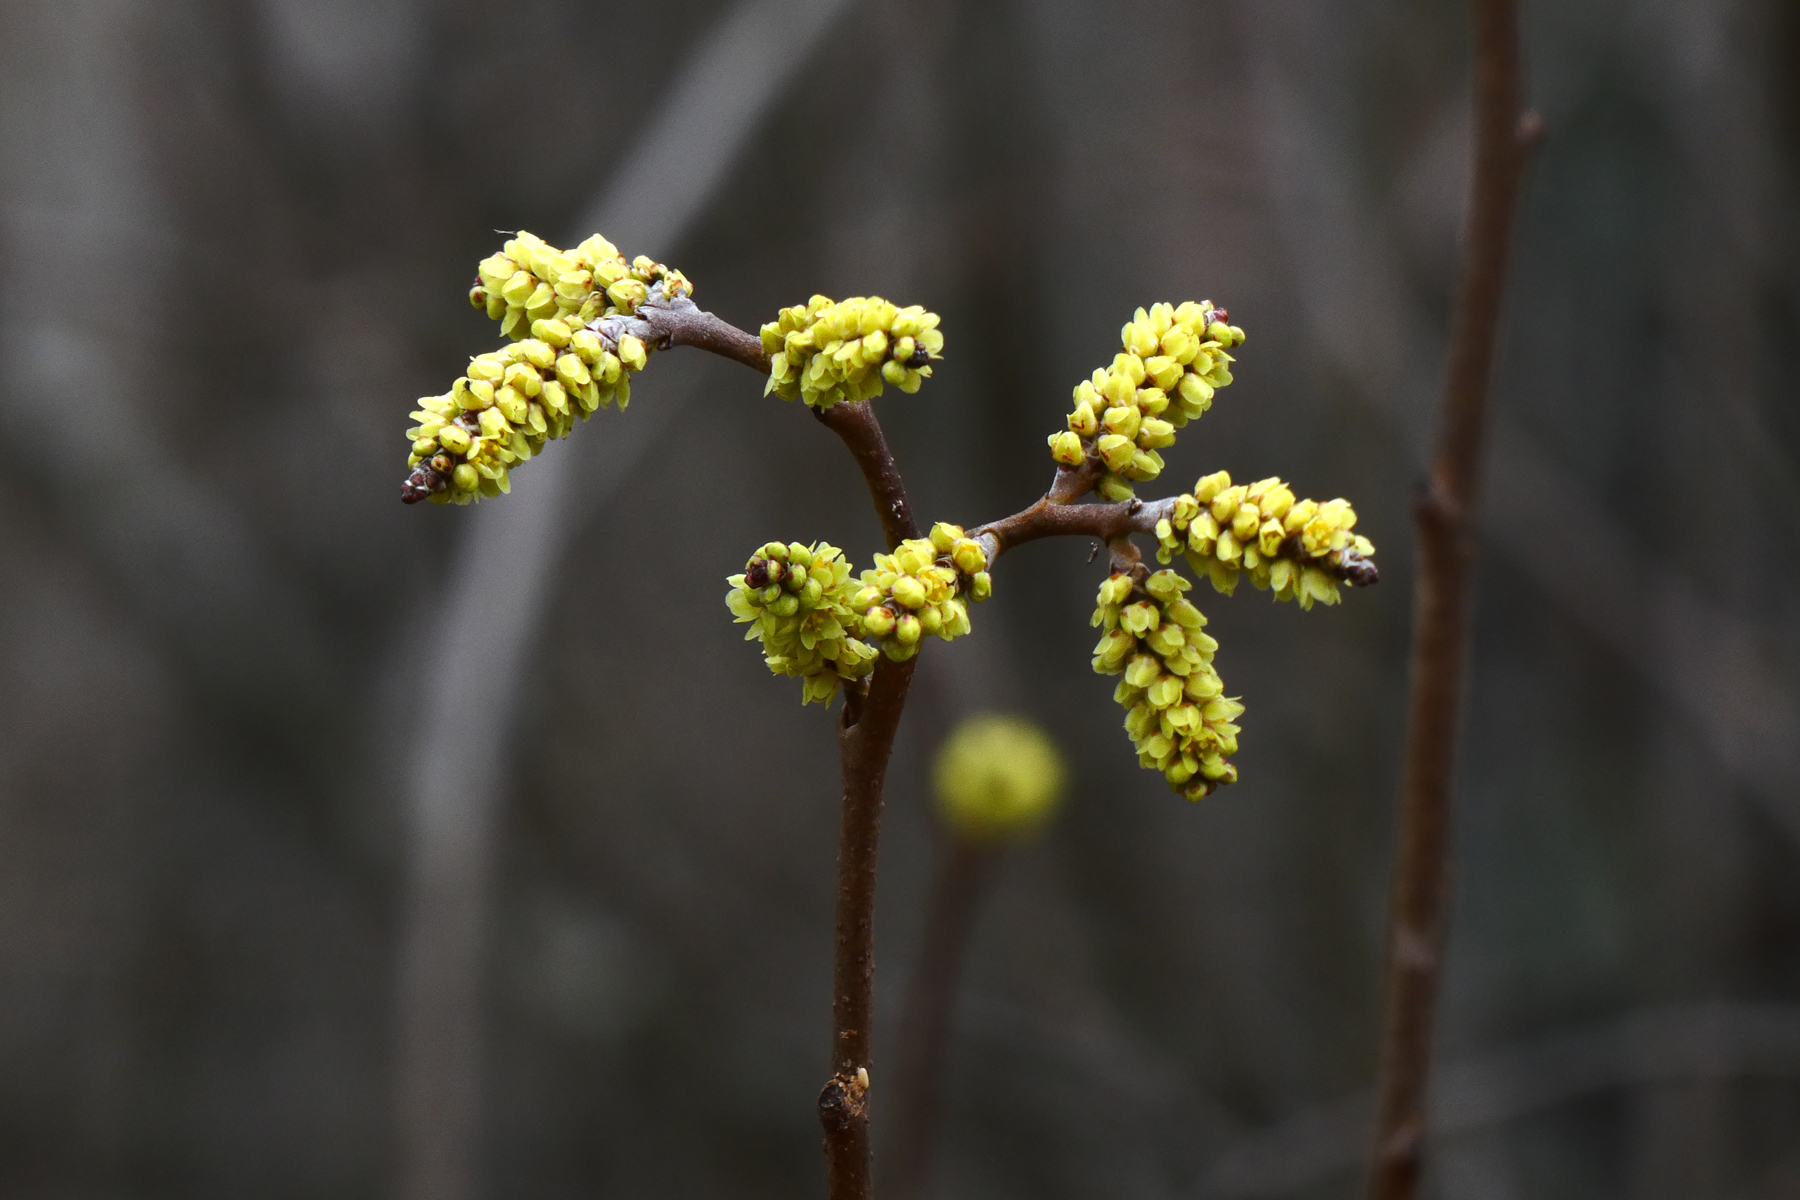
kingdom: Plantae
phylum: Tracheophyta
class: Magnoliopsida
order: Sapindales
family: Anacardiaceae
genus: Rhus
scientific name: Rhus aromatica
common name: Aromatic sumac
